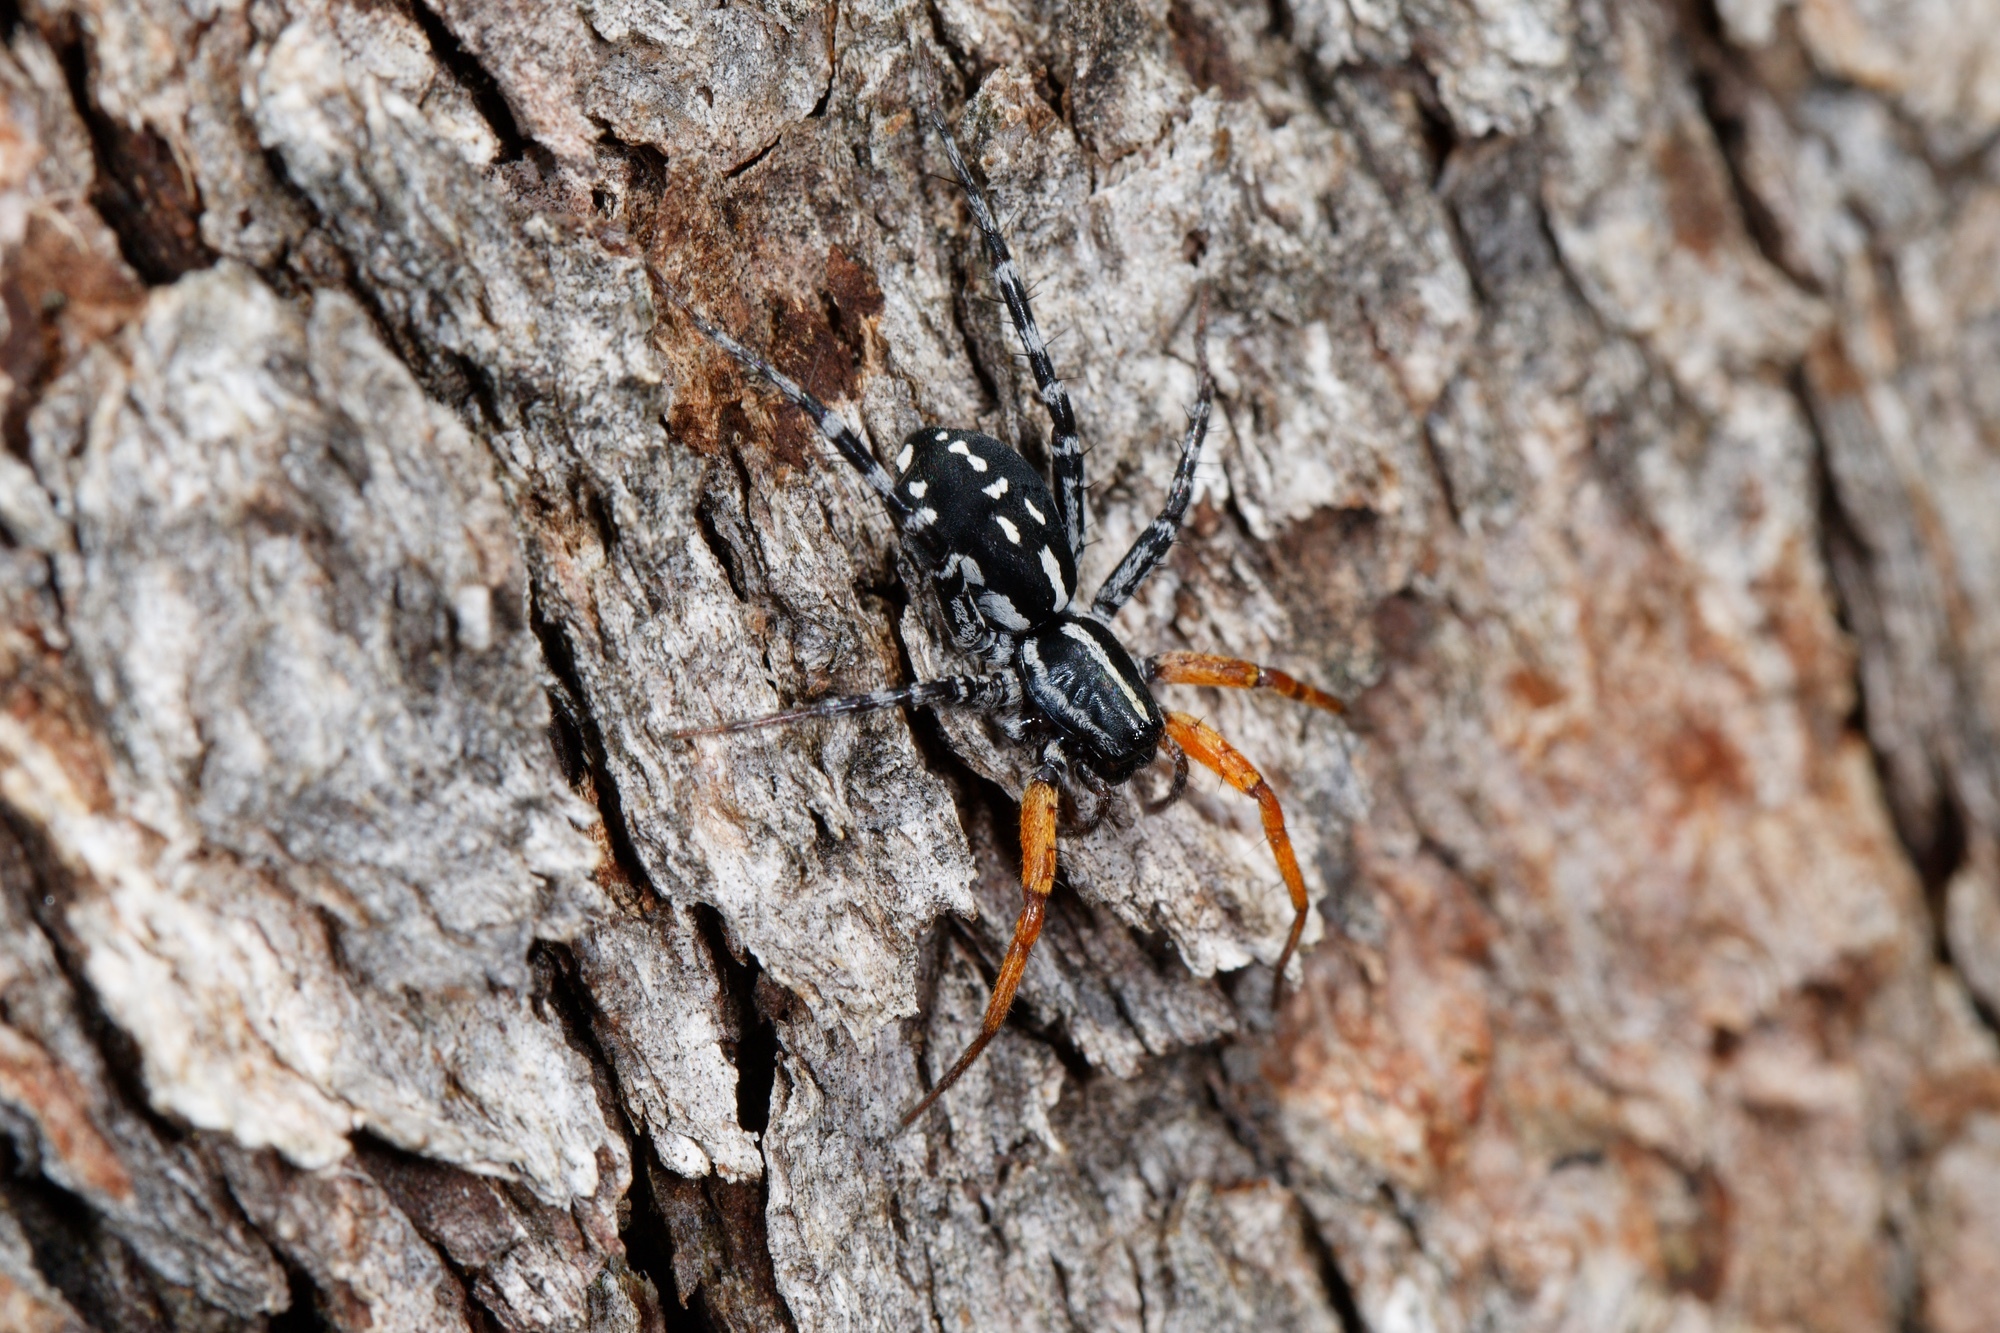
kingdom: Animalia
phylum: Arthropoda
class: Arachnida
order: Araneae
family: Corinnidae
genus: Nyssus
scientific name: Nyssus coloripes
